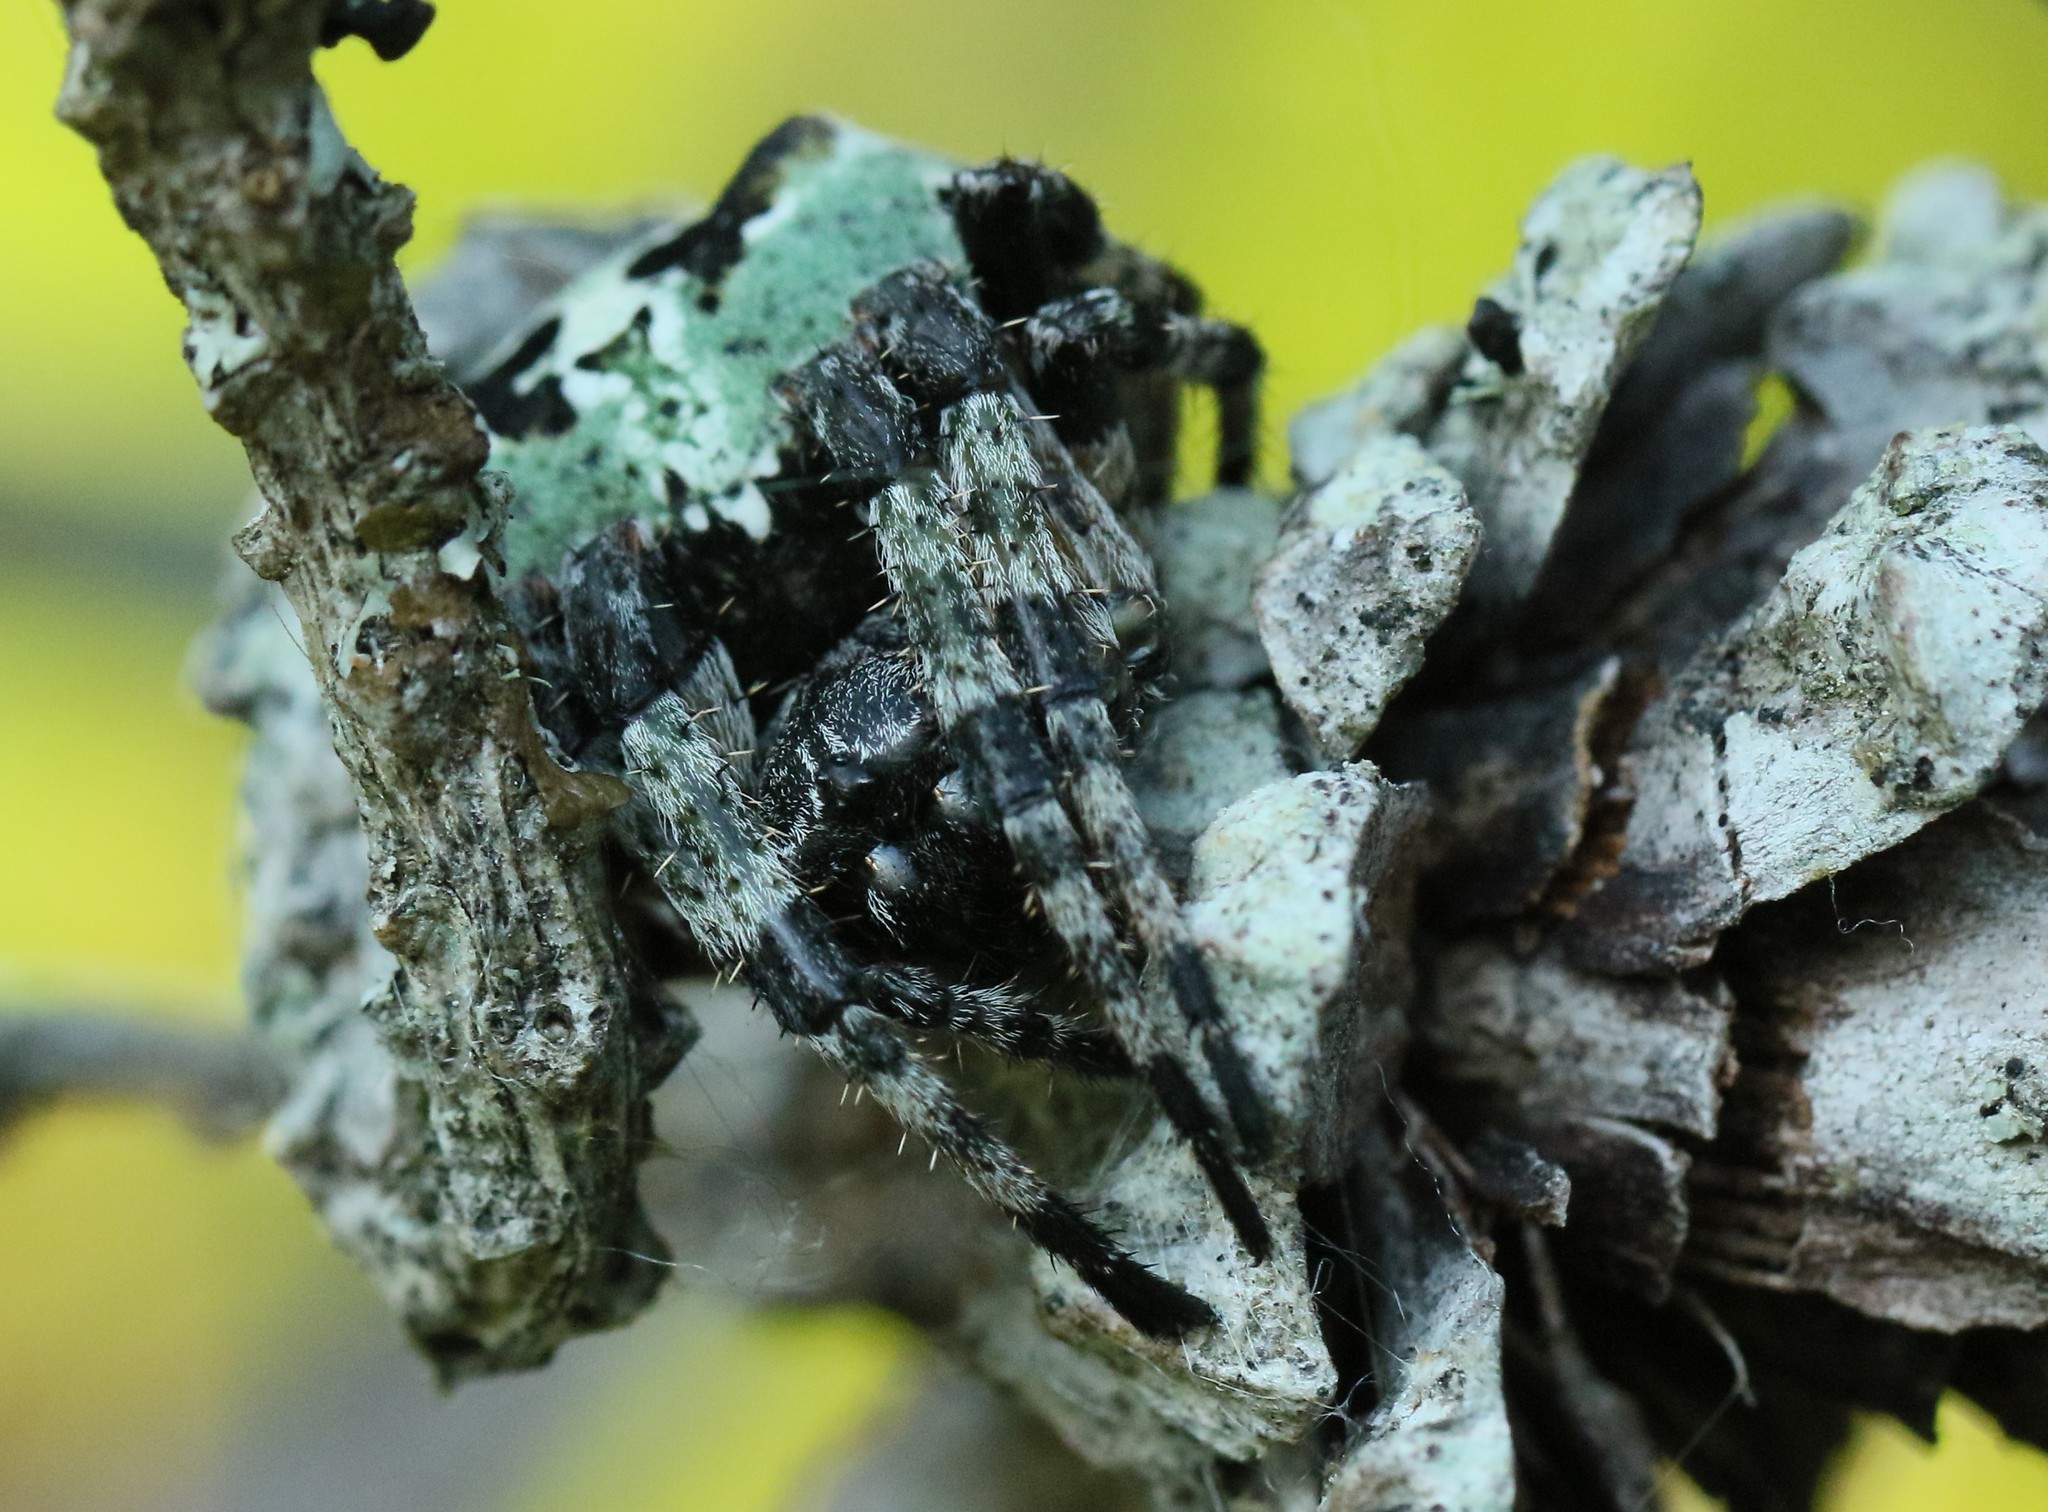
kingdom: Animalia
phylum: Arthropoda
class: Arachnida
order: Araneae
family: Araneidae
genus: Araneus
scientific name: Araneus bicentenarius
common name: Giant lichen orbweaver
